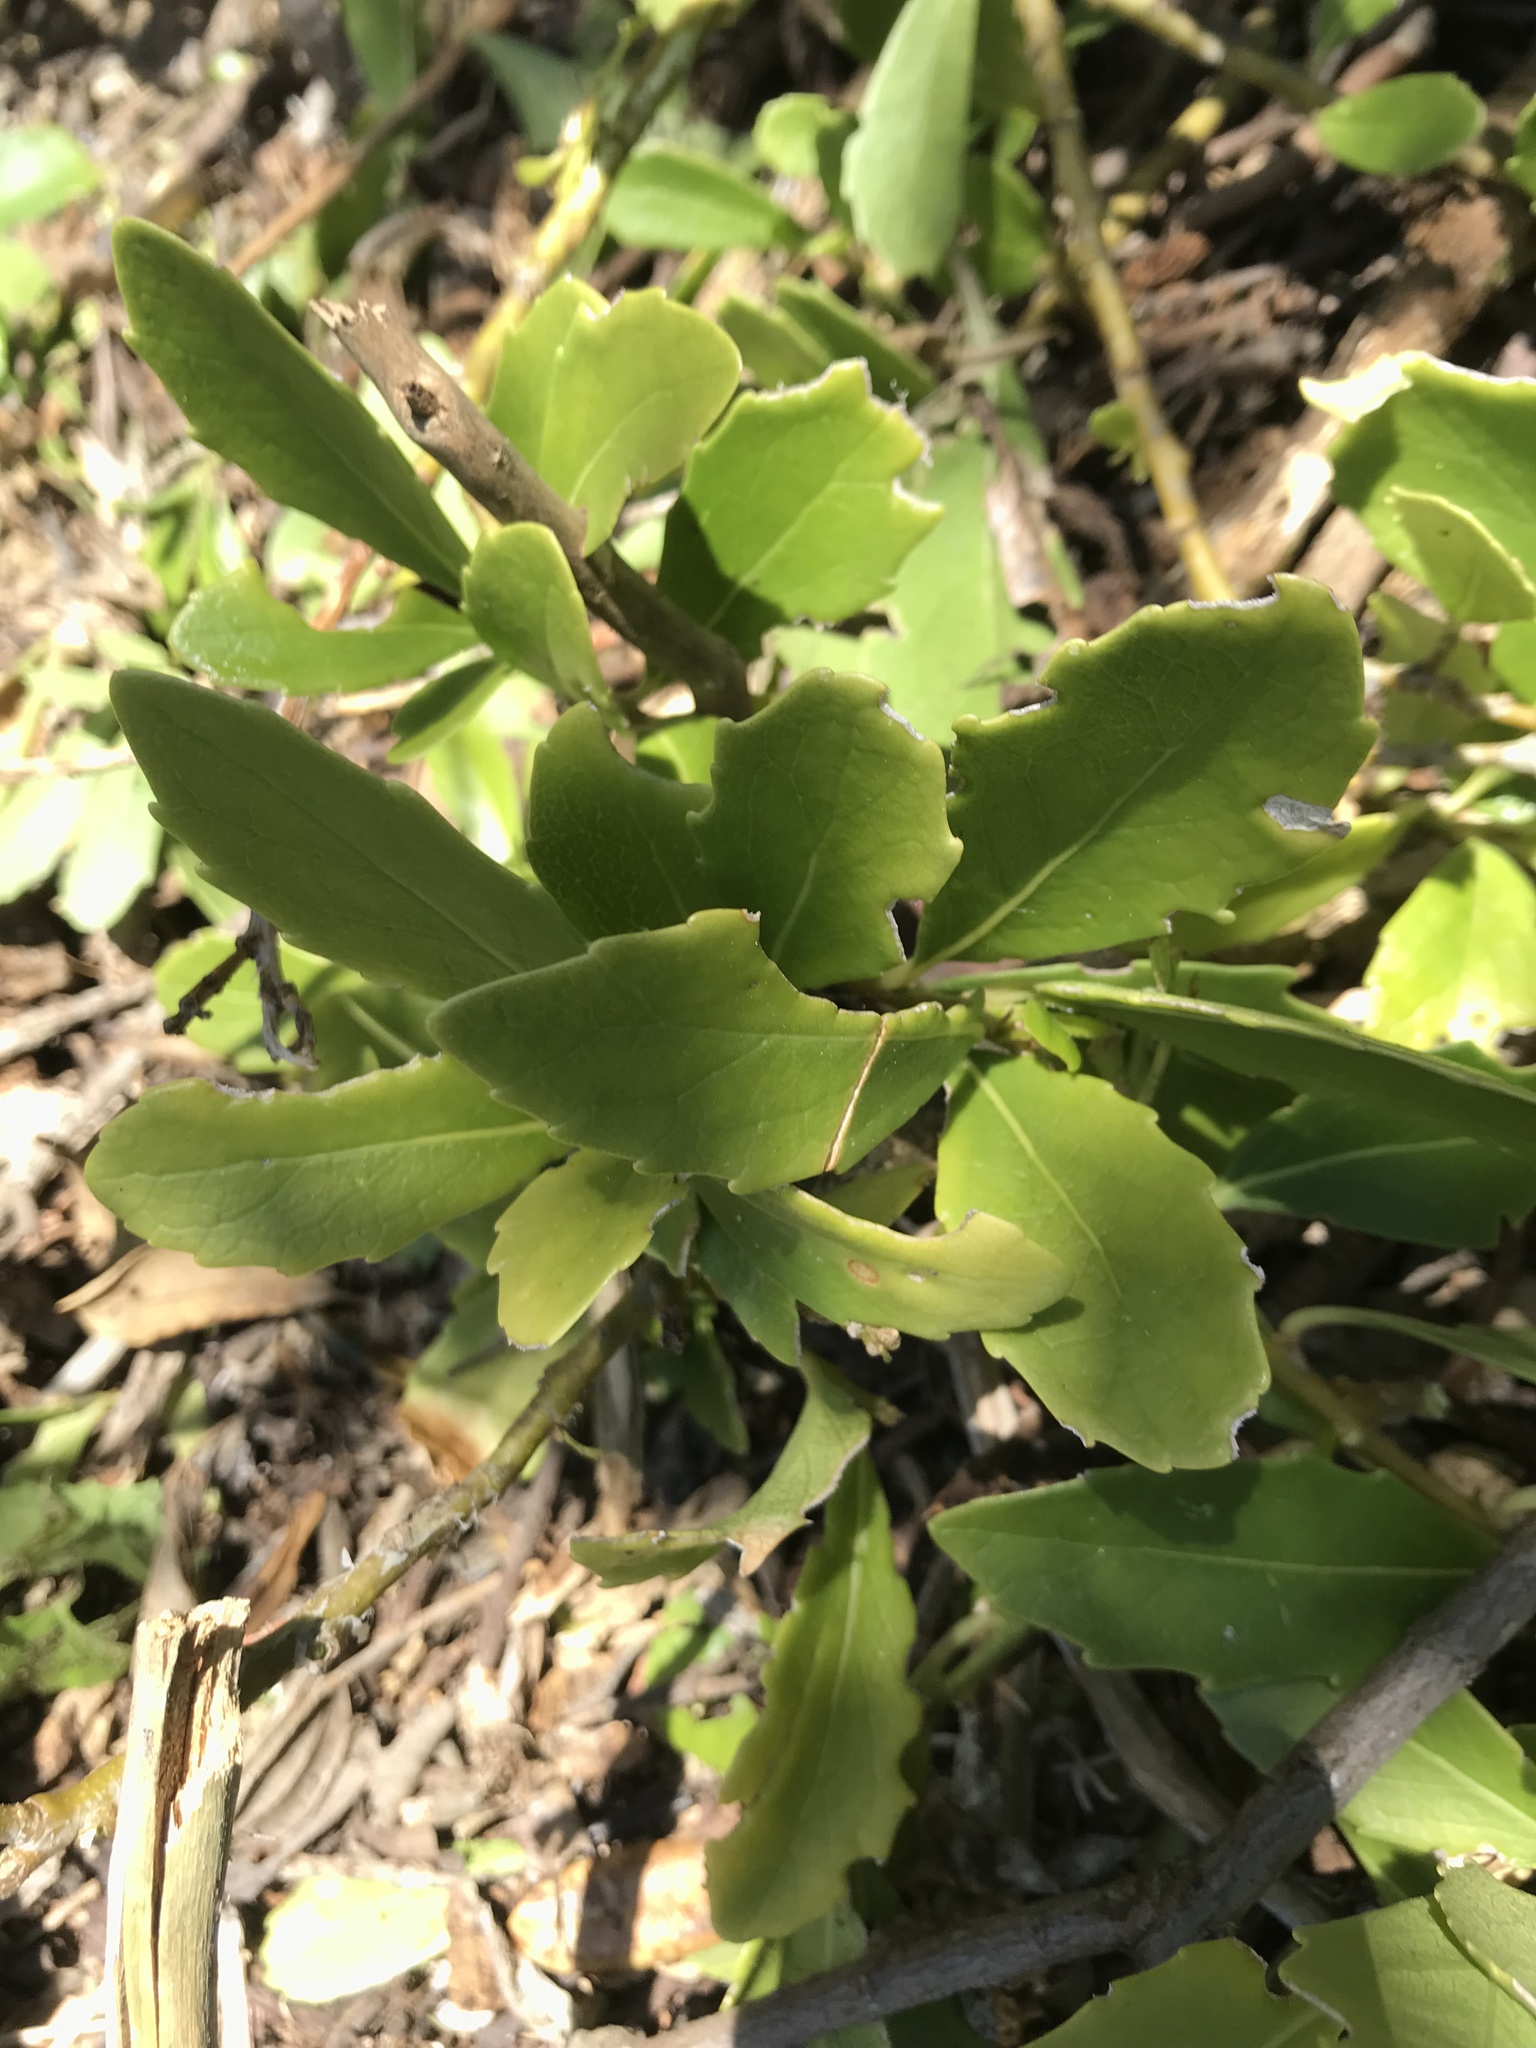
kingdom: Plantae
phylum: Tracheophyta
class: Magnoliopsida
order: Malpighiales
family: Violaceae
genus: Melicytus
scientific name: Melicytus novae-zelandiae
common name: Coastal mahoe
